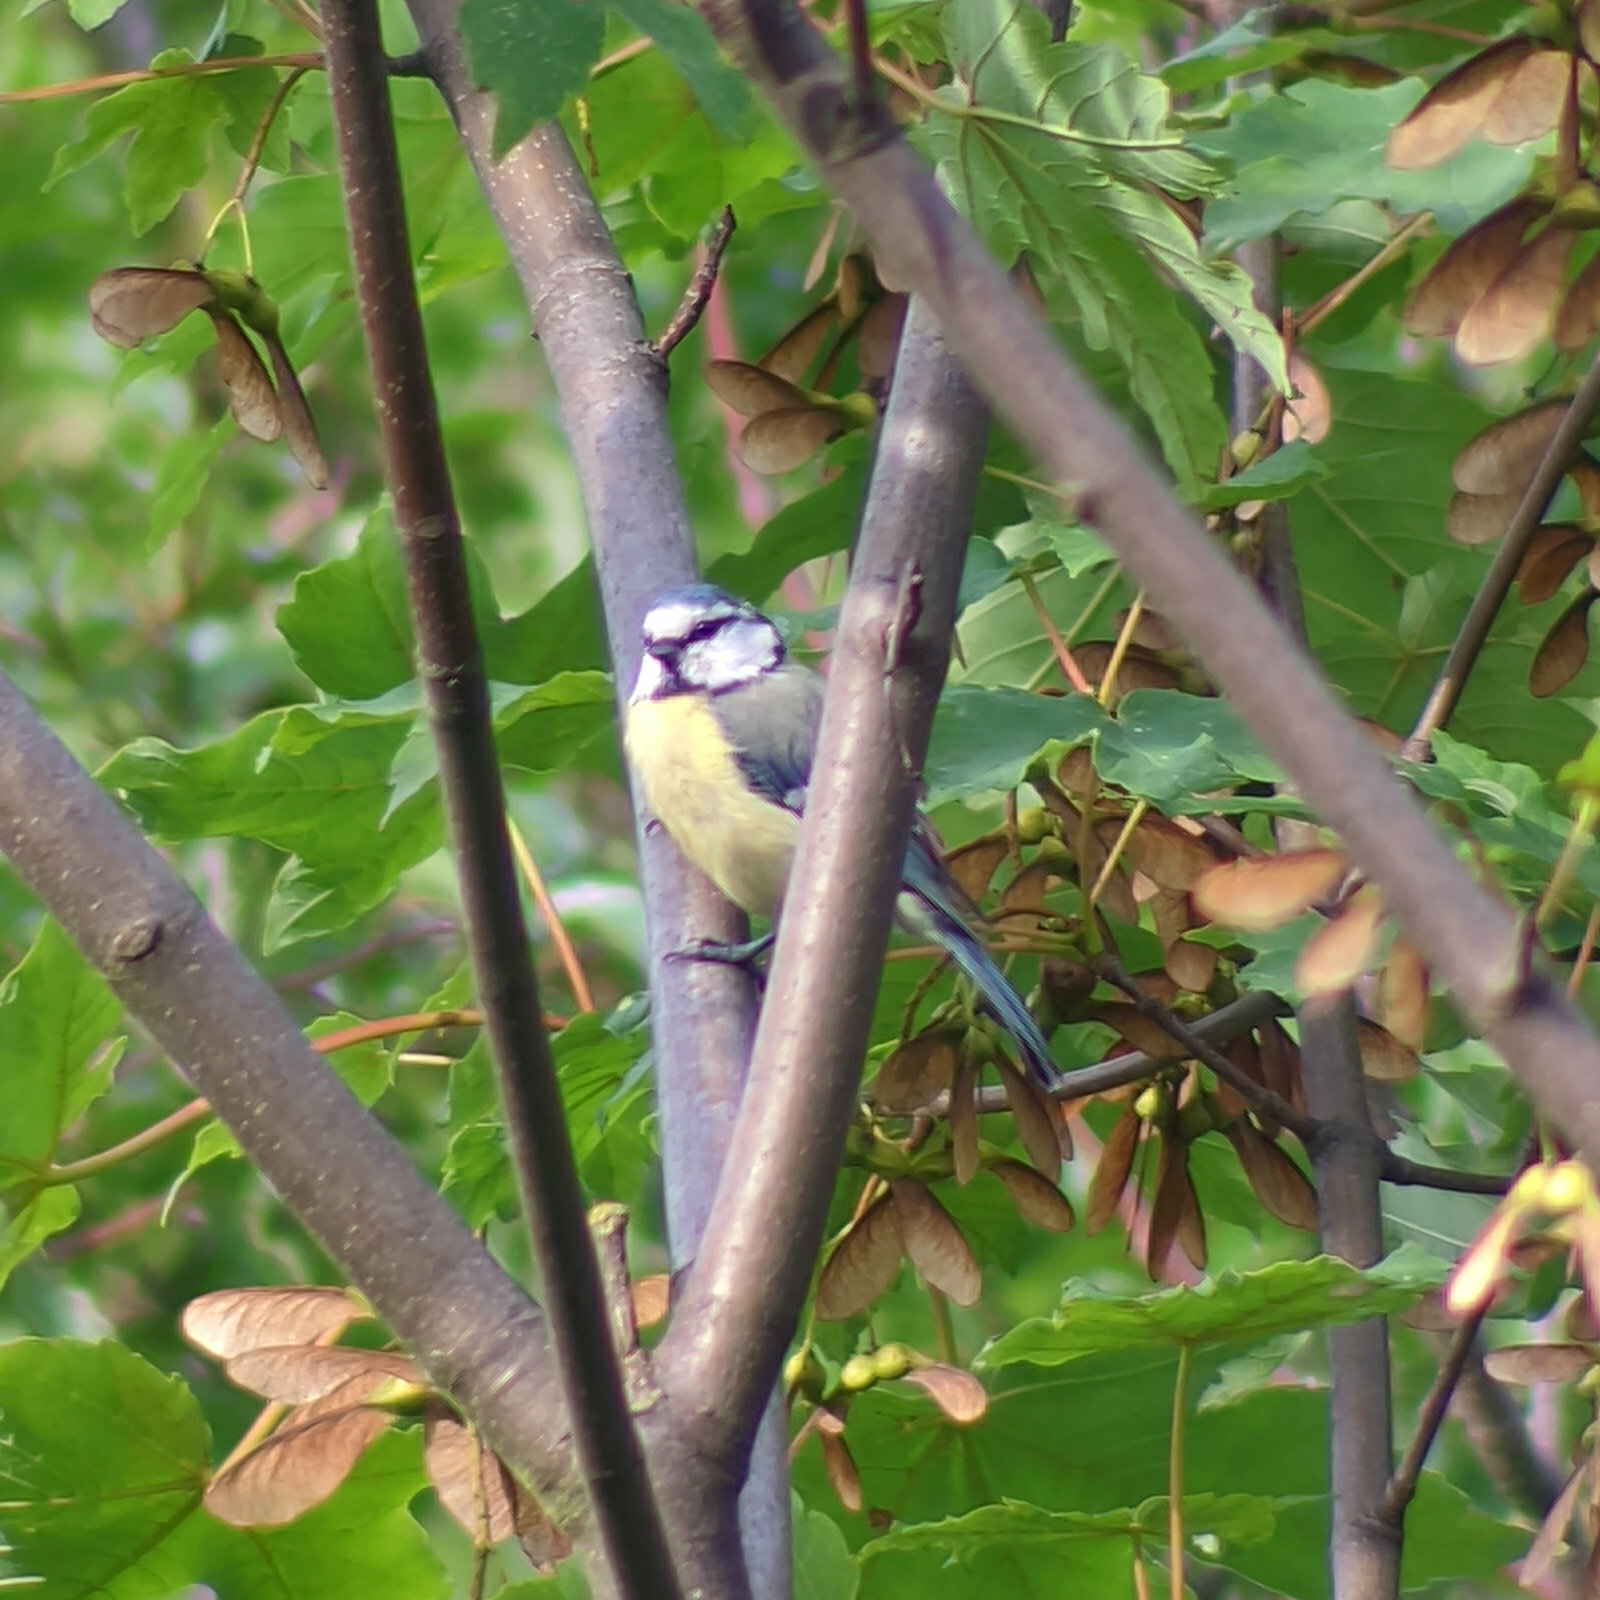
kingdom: Animalia
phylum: Chordata
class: Aves
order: Passeriformes
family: Paridae
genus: Cyanistes
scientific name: Cyanistes caeruleus
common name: Eurasian blue tit
